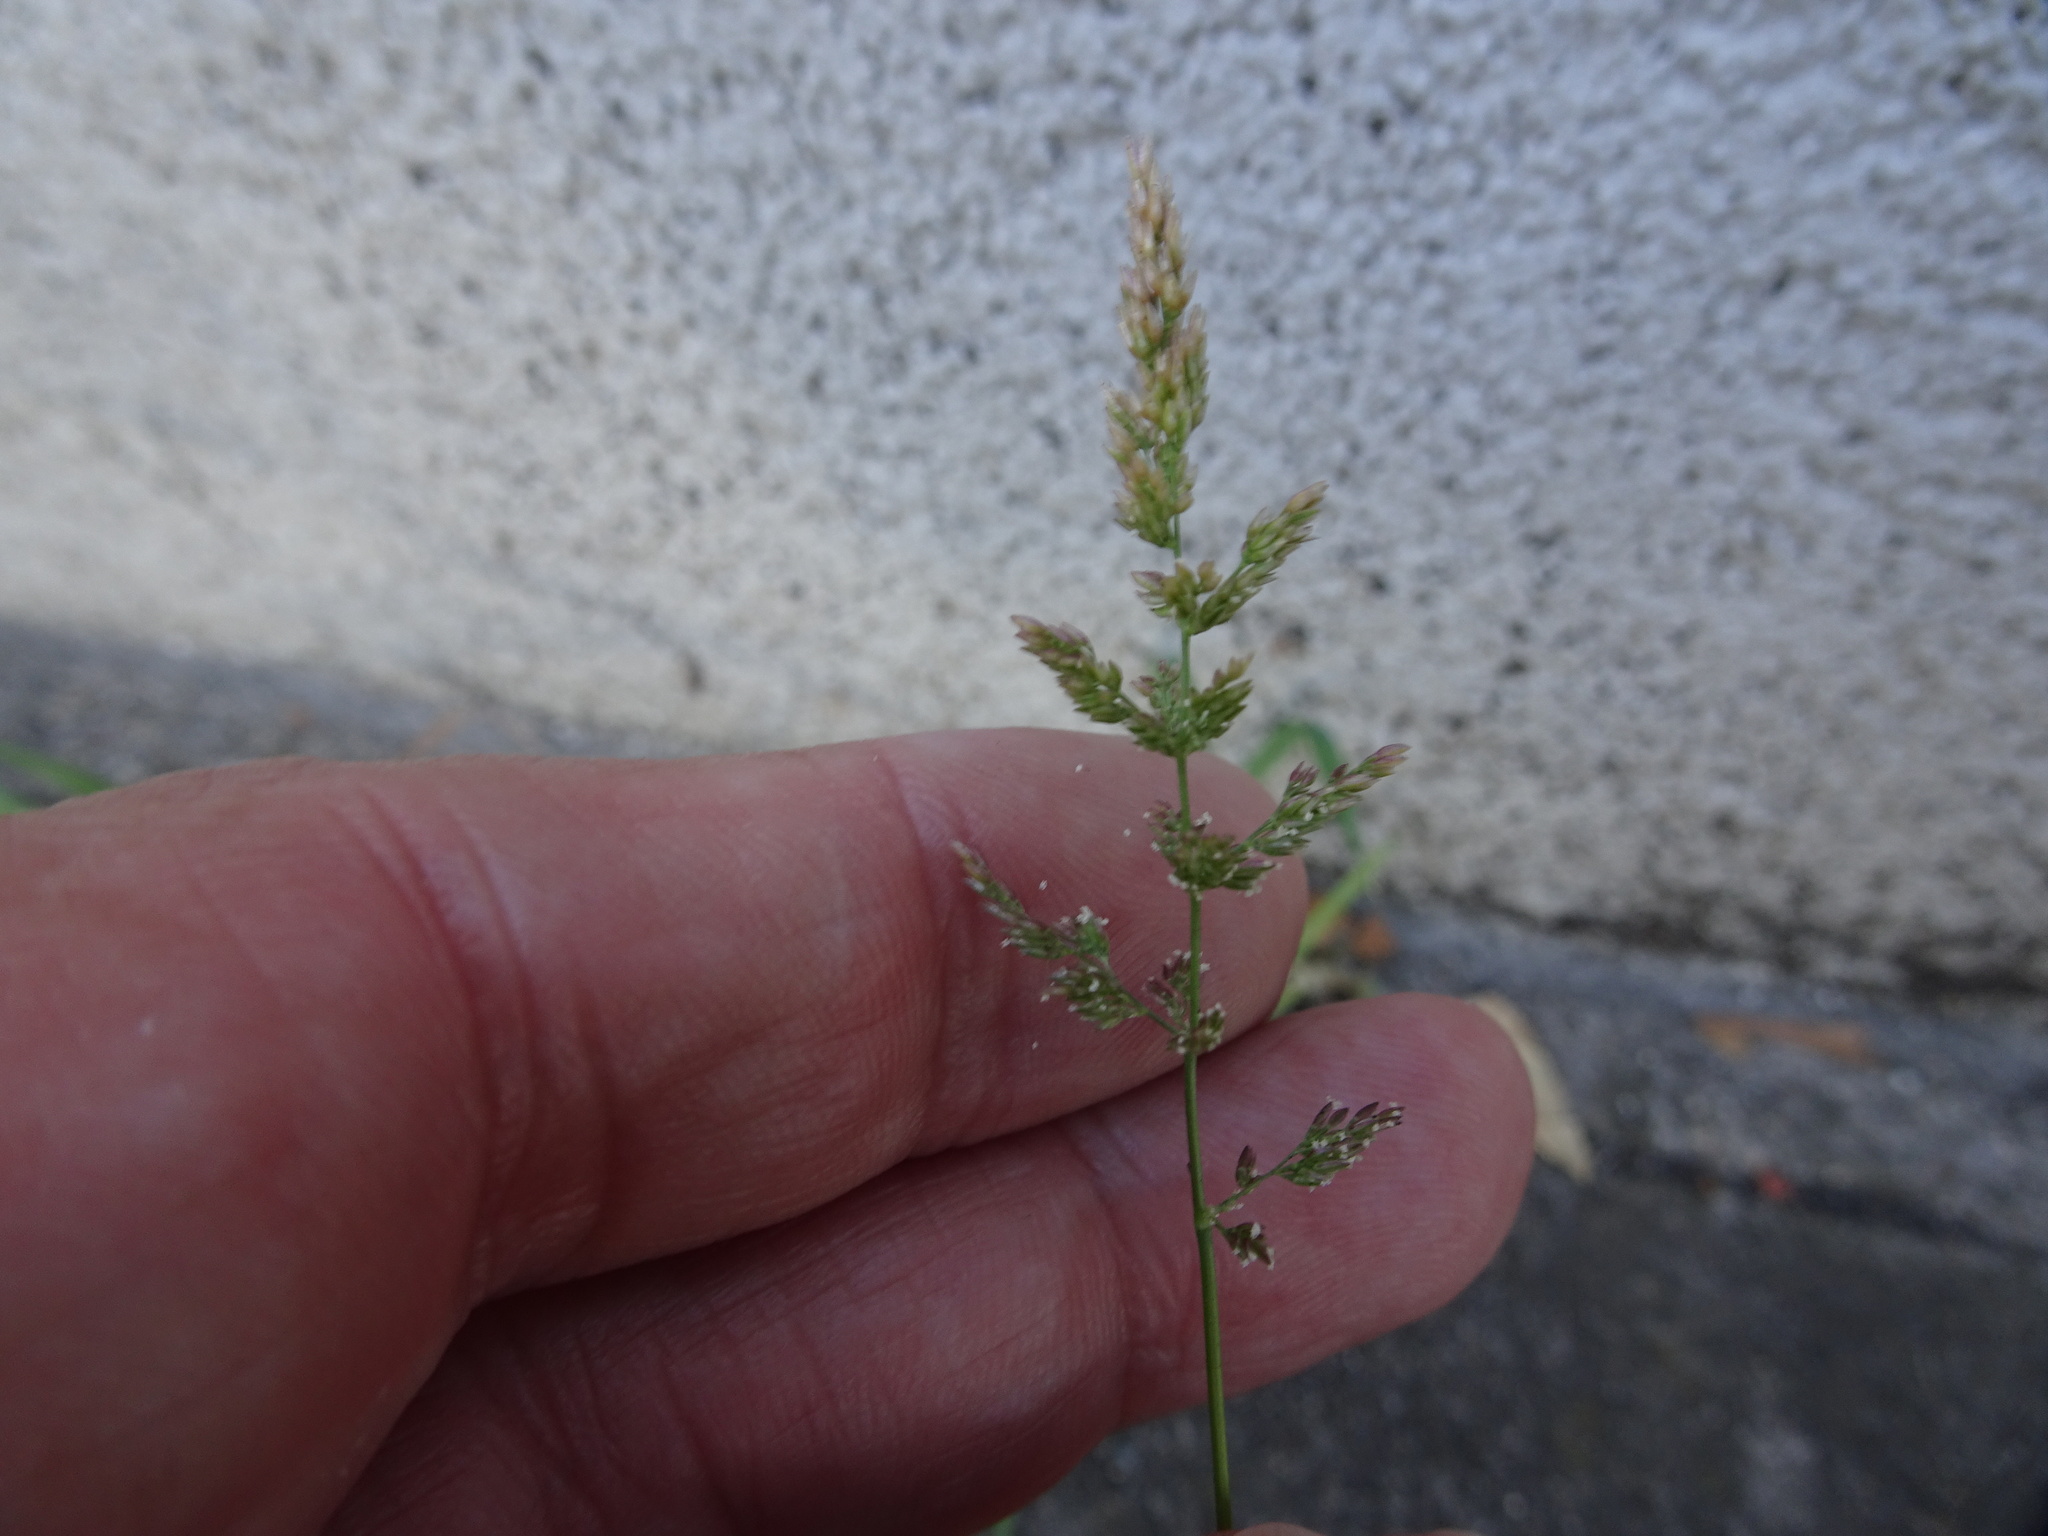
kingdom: Plantae
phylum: Tracheophyta
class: Liliopsida
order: Poales
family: Poaceae
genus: Polypogon
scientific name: Polypogon viridis
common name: Water bent
